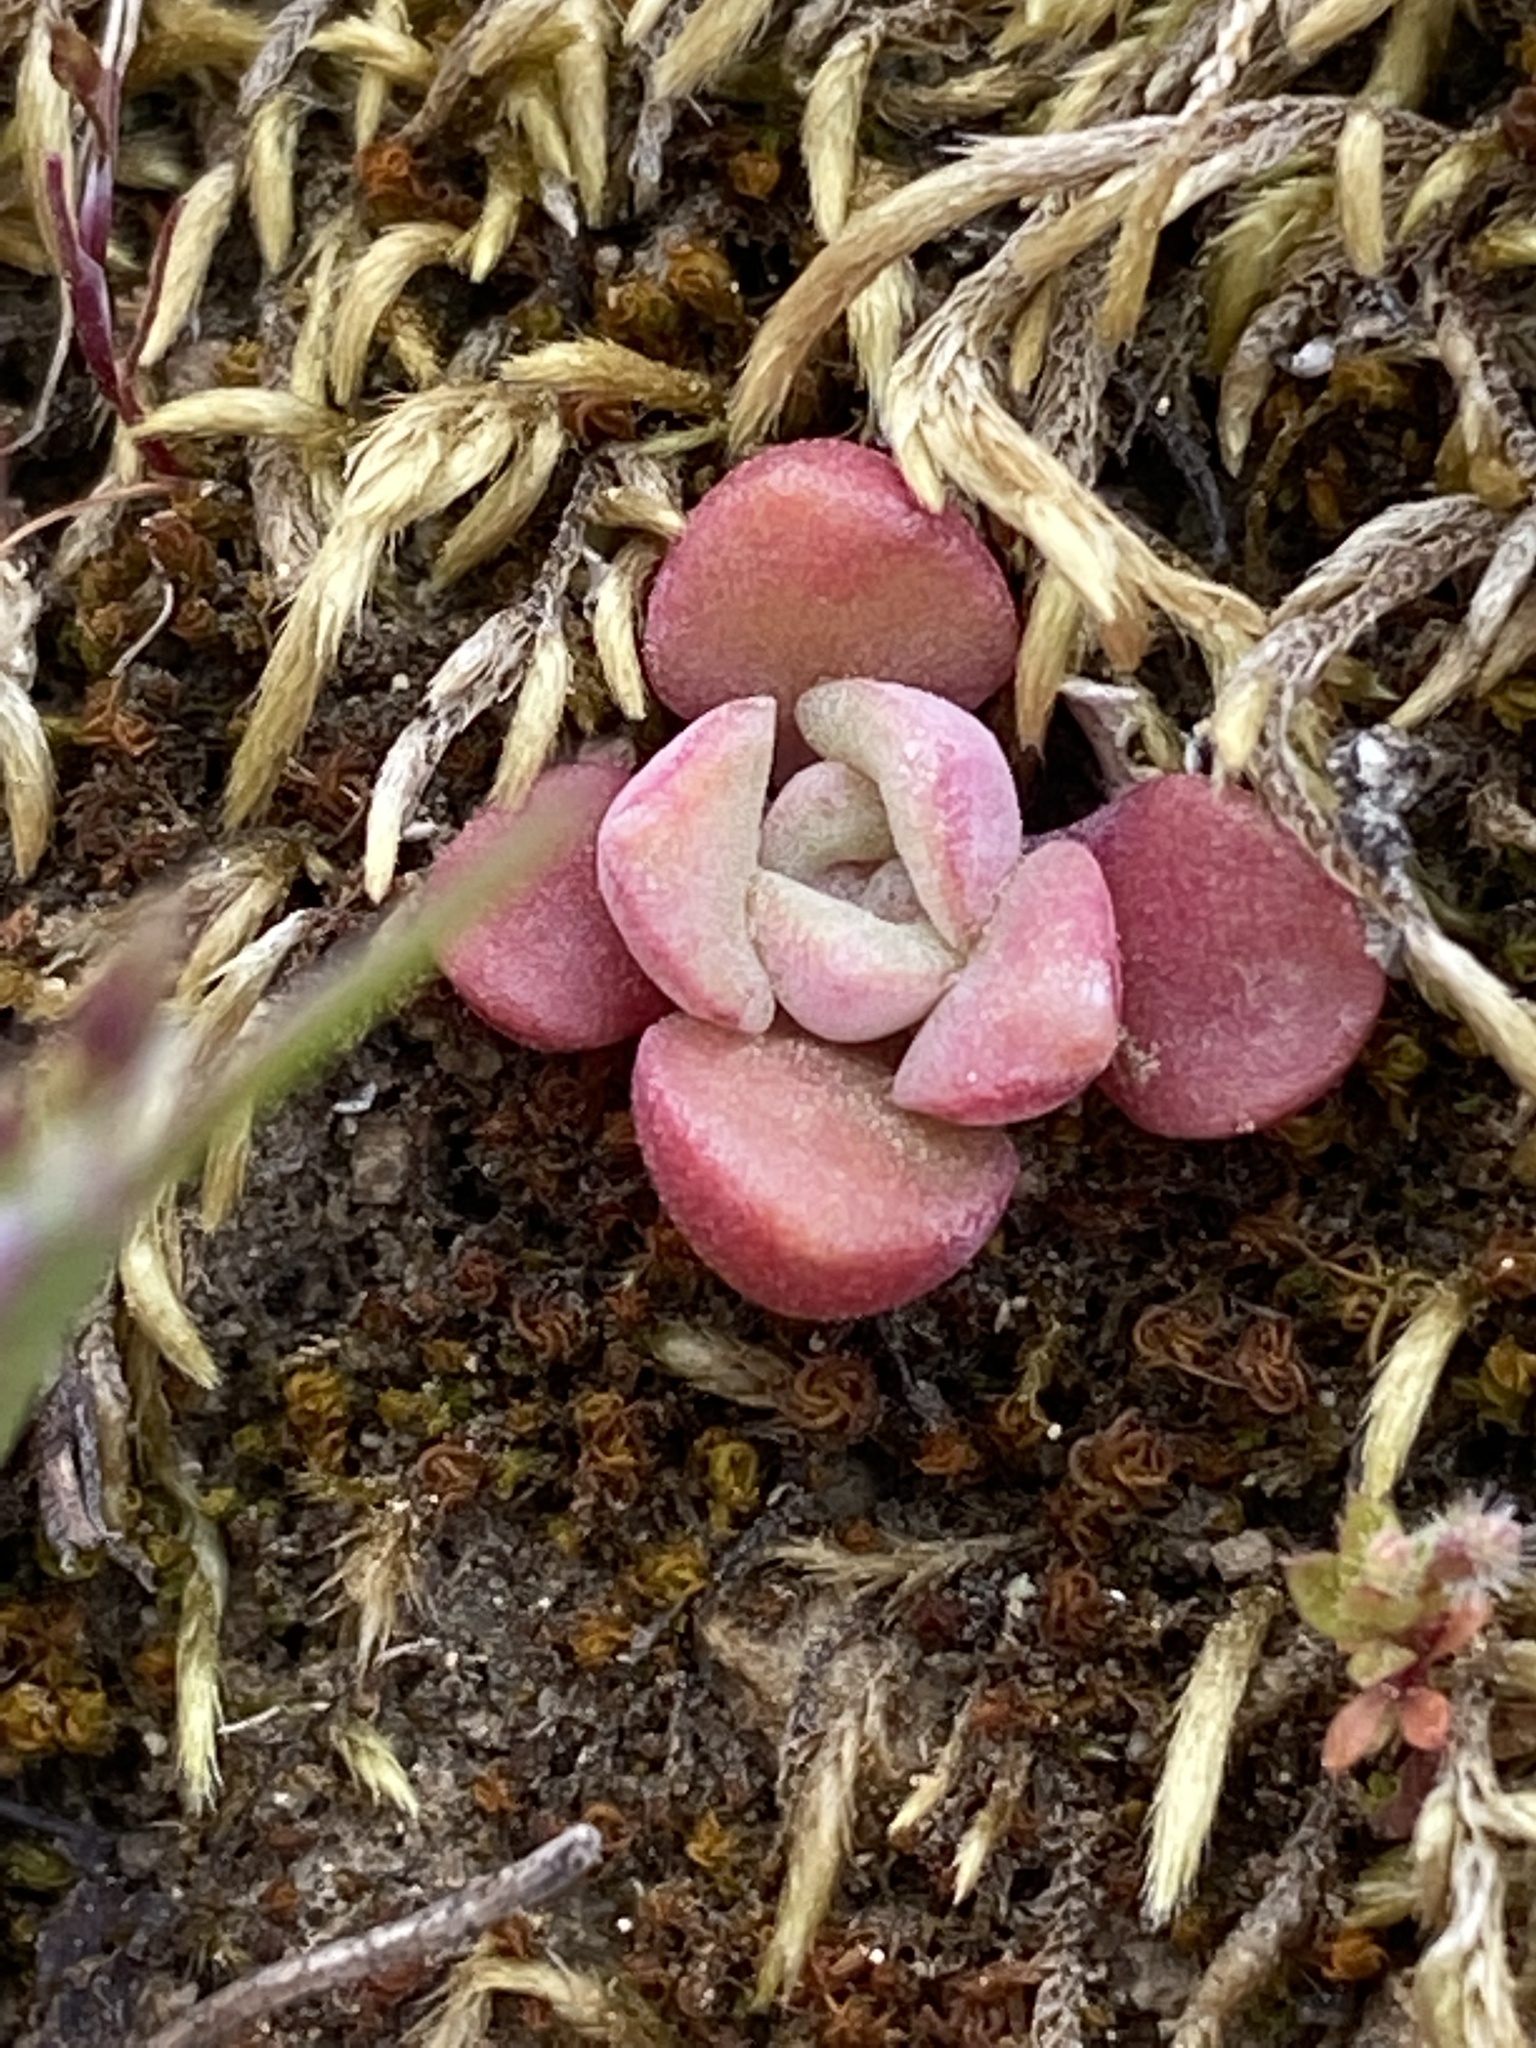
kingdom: Plantae
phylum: Tracheophyta
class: Magnoliopsida
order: Saxifragales
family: Crassulaceae
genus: Sedum
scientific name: Sedum spathulifolium
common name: Colorado stonecrop
